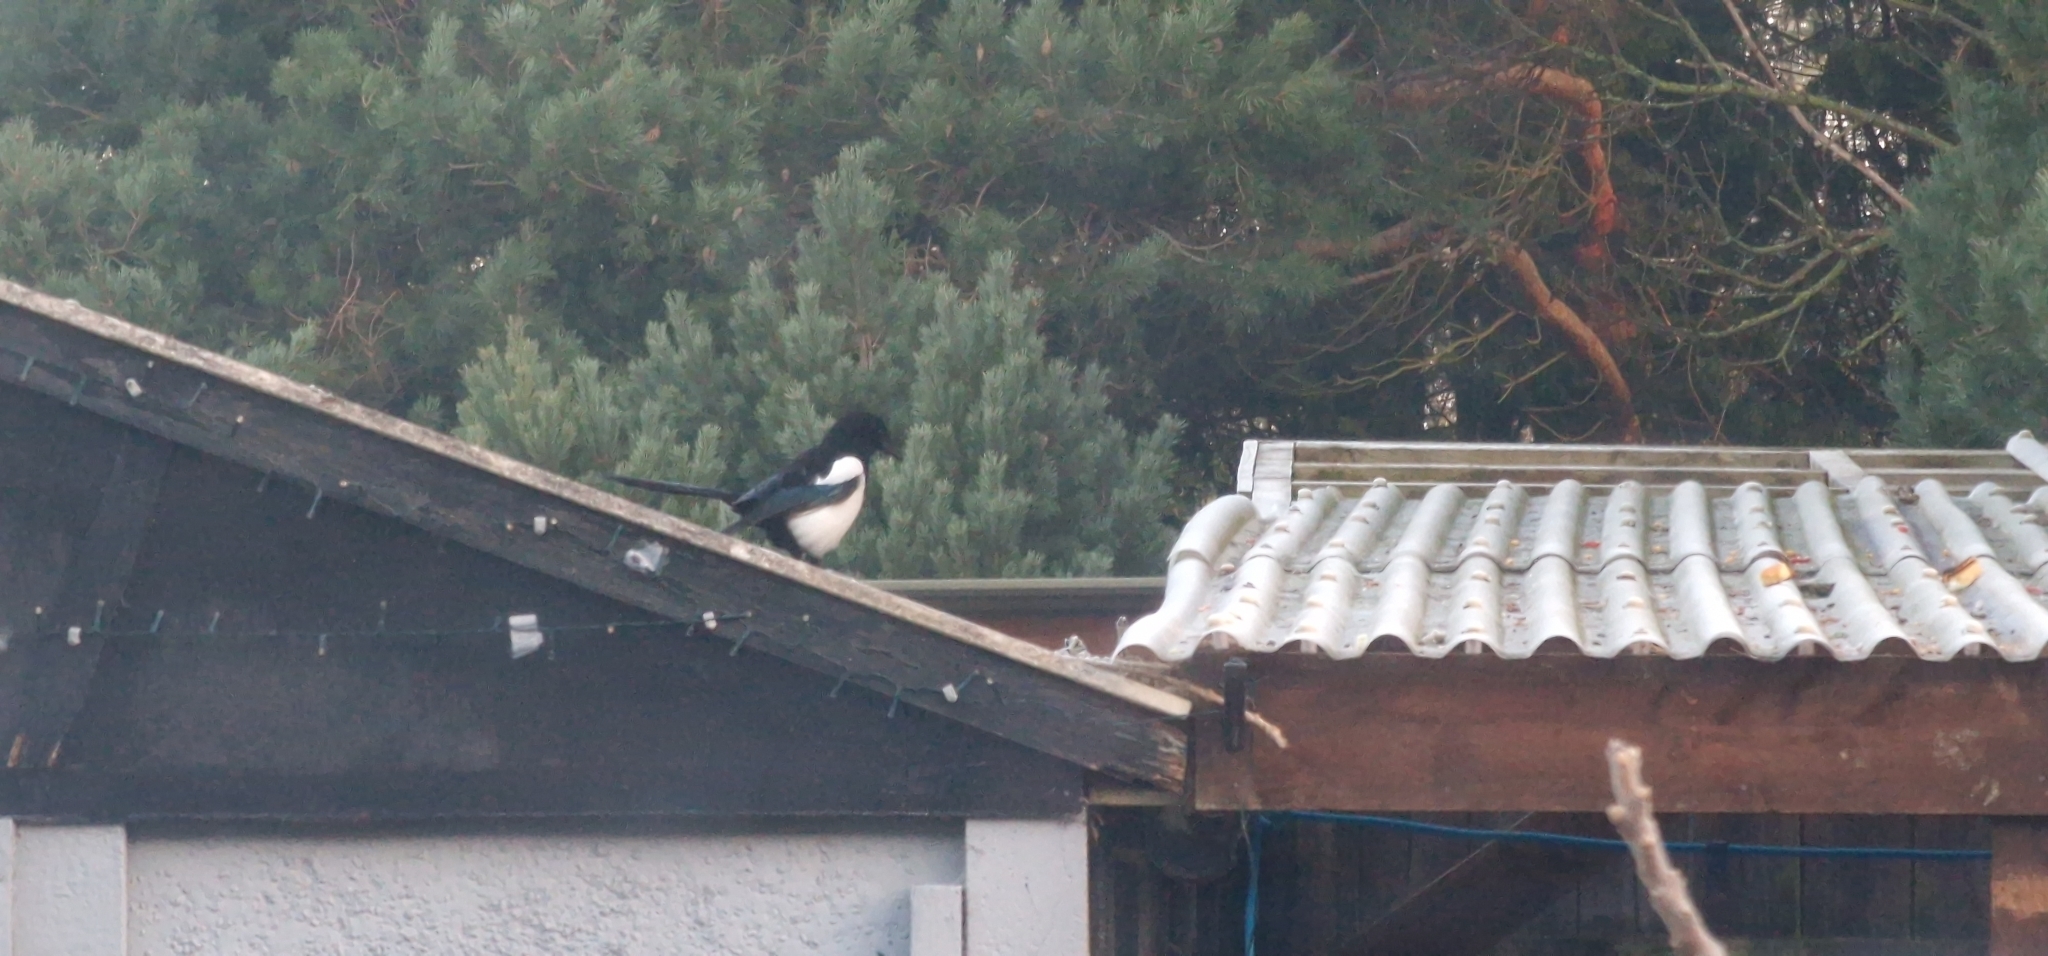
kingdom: Animalia
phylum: Chordata
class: Aves
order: Passeriformes
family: Corvidae
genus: Pica
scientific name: Pica pica
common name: Eurasian magpie
